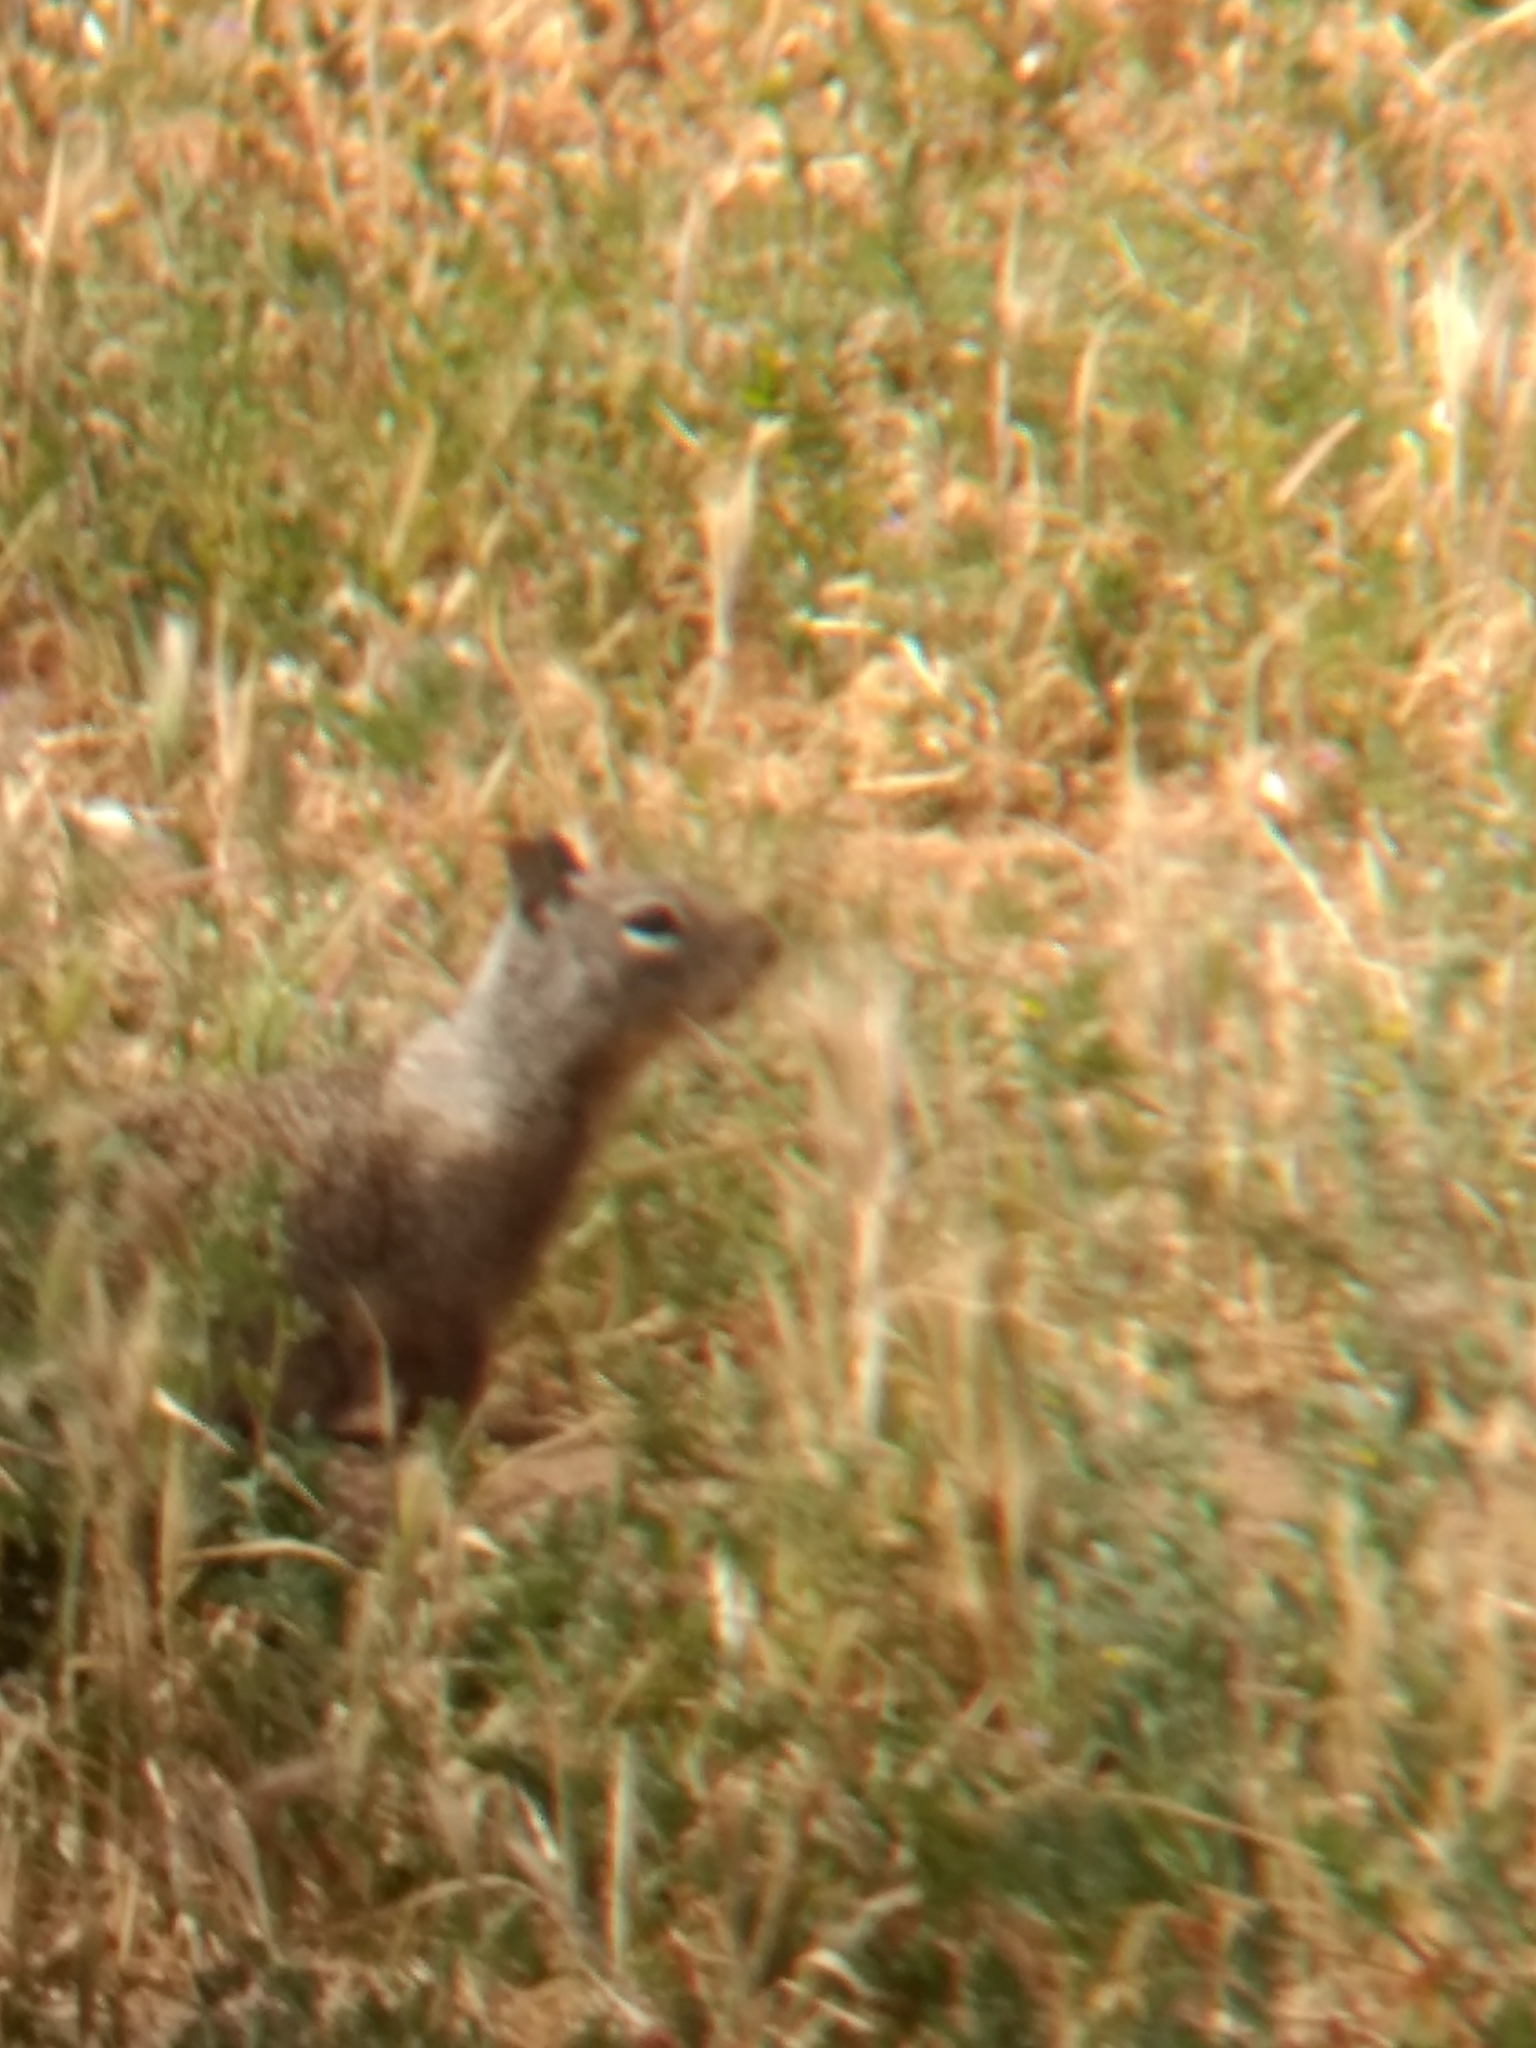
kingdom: Animalia
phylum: Chordata
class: Mammalia
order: Rodentia
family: Sciuridae
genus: Otospermophilus
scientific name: Otospermophilus beecheyi
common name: California ground squirrel
